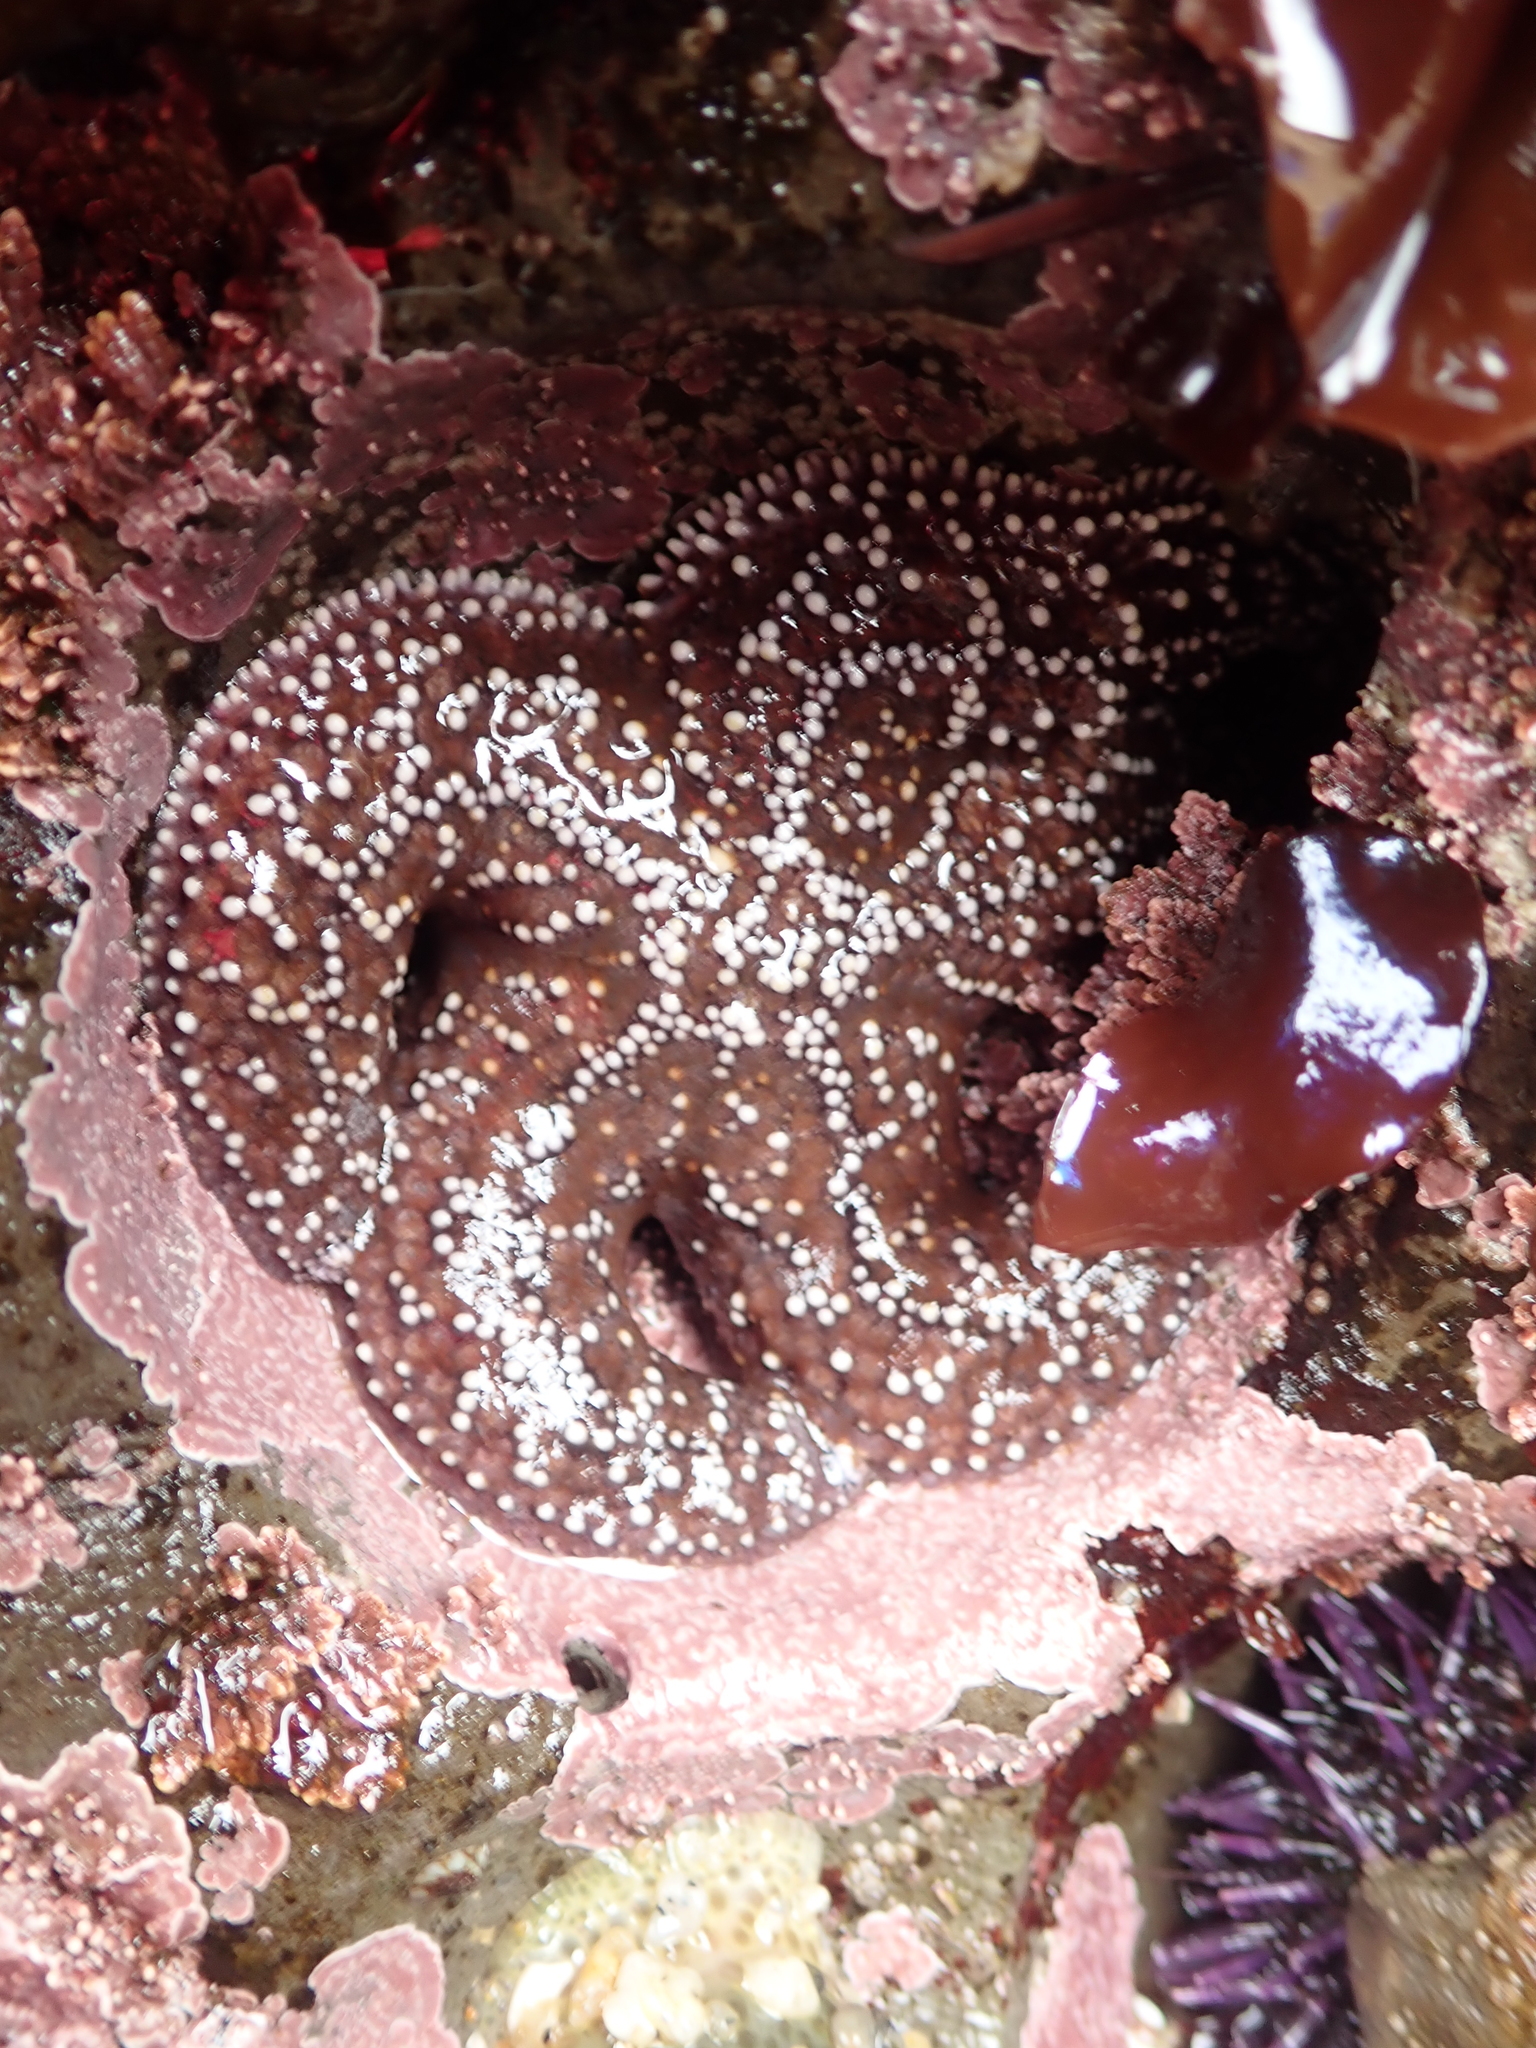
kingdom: Animalia
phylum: Echinodermata
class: Asteroidea
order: Forcipulatida
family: Asteriidae
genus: Pisaster
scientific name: Pisaster ochraceus
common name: Ochre stars
